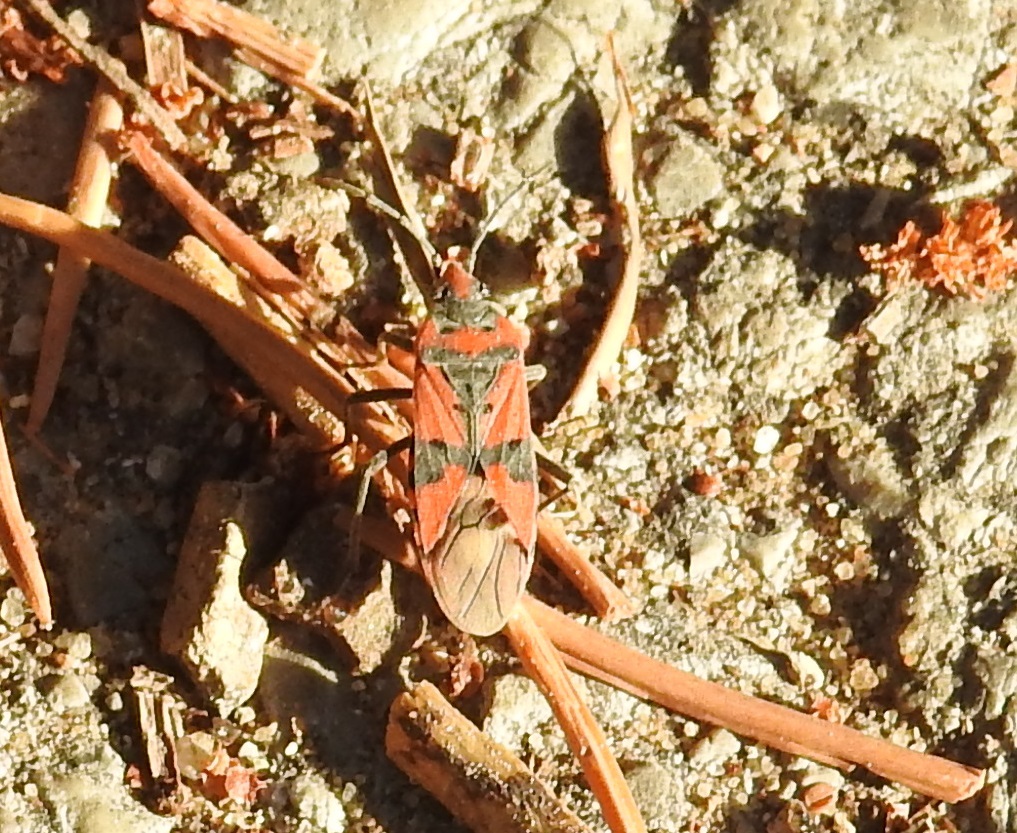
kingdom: Animalia
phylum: Arthropoda
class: Insecta
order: Hemiptera
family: Lygaeidae
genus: Lygaeus
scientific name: Lygaeus equestris
